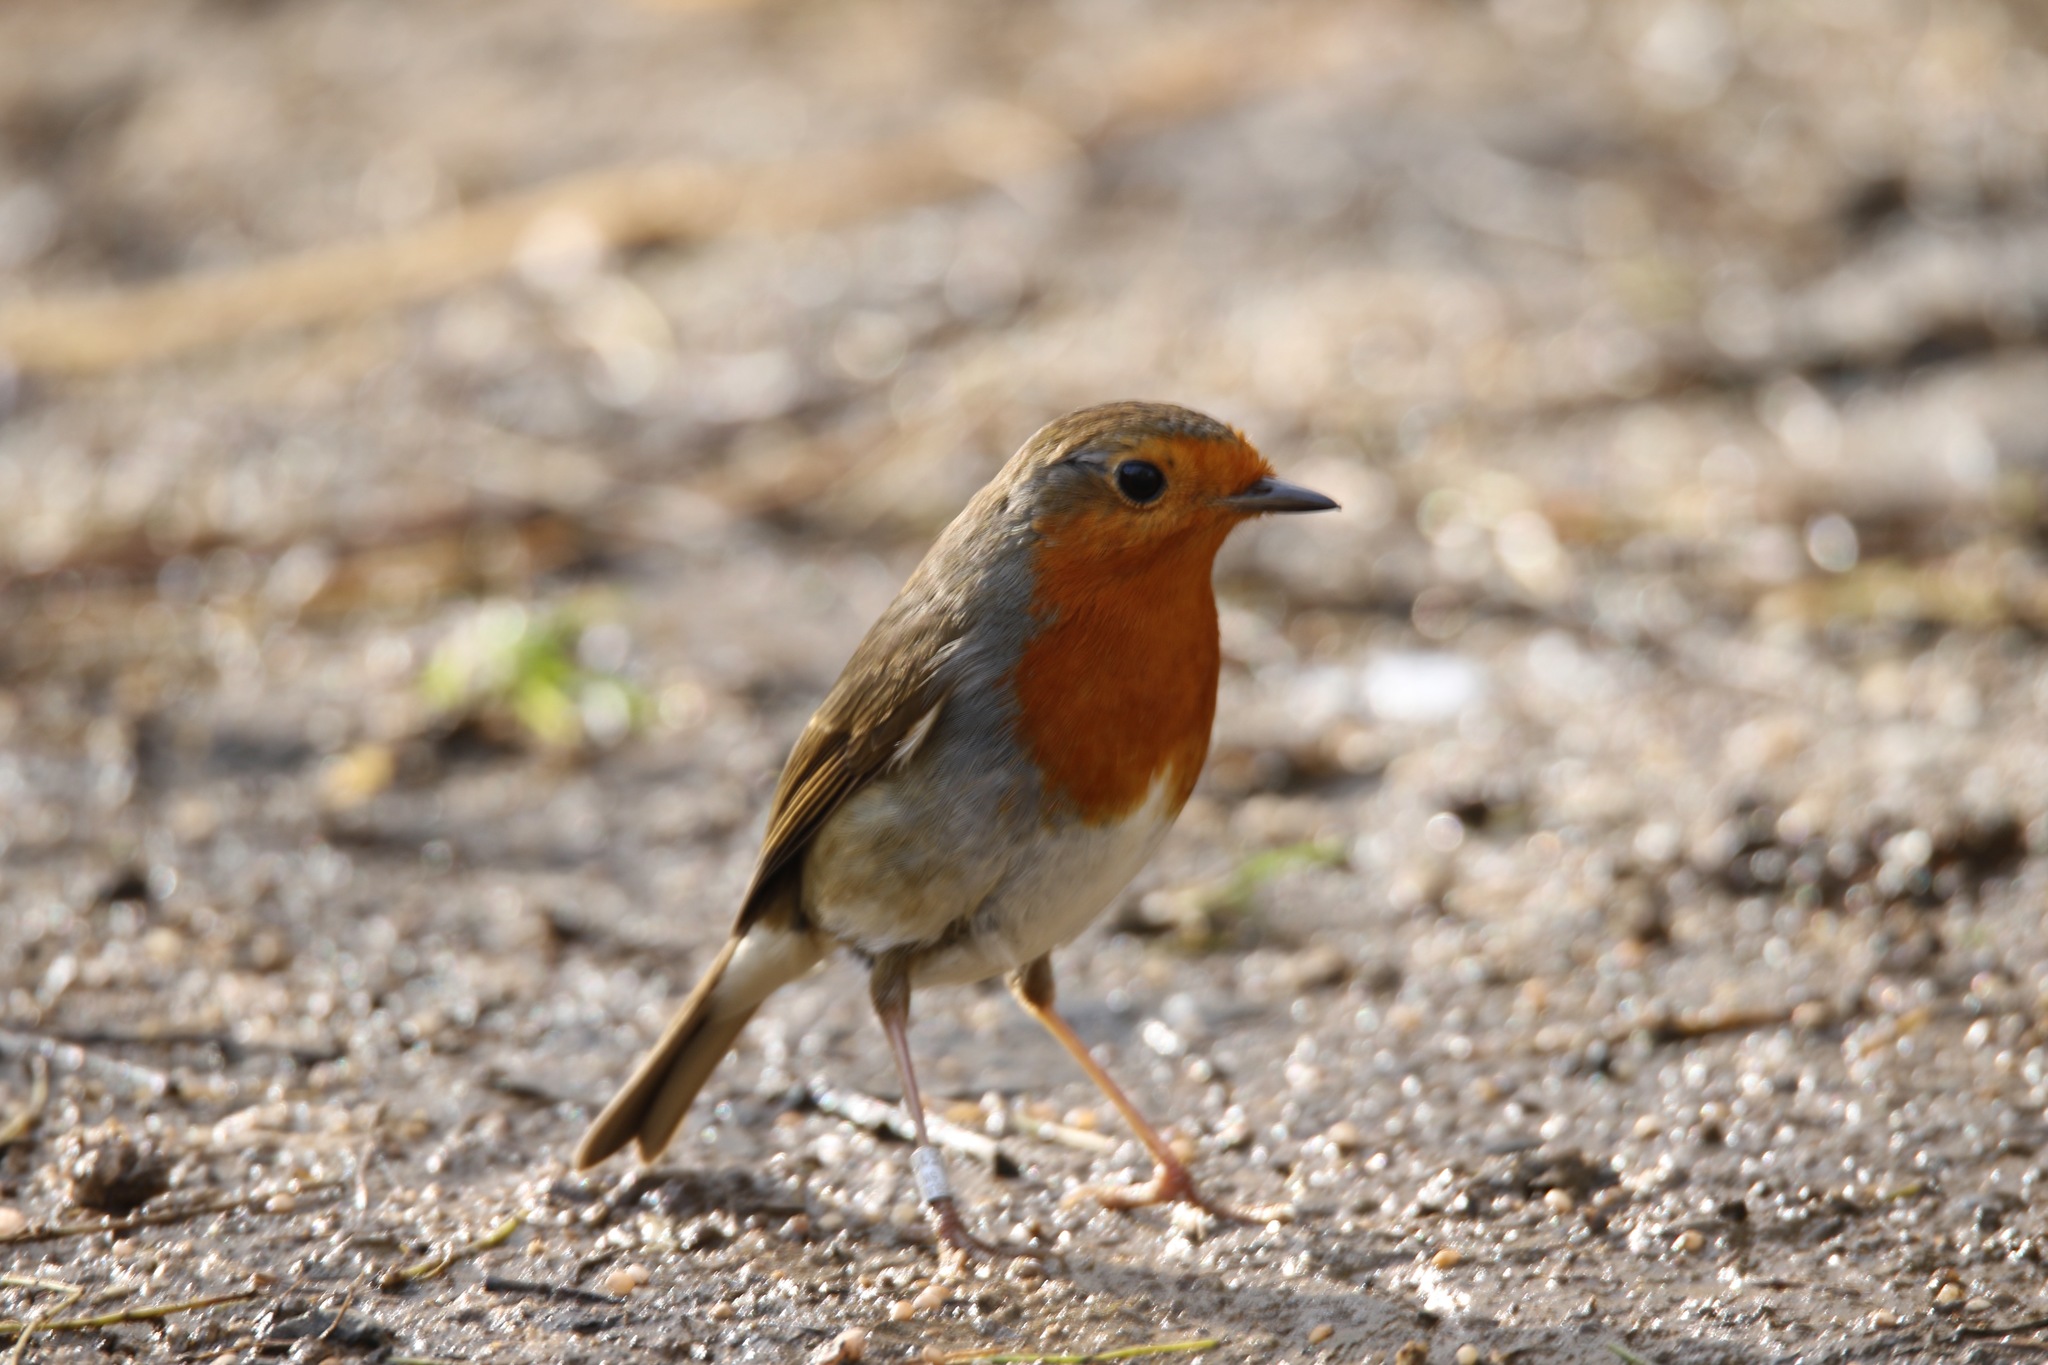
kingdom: Animalia
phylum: Chordata
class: Aves
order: Passeriformes
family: Muscicapidae
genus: Erithacus
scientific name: Erithacus rubecula
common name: European robin
